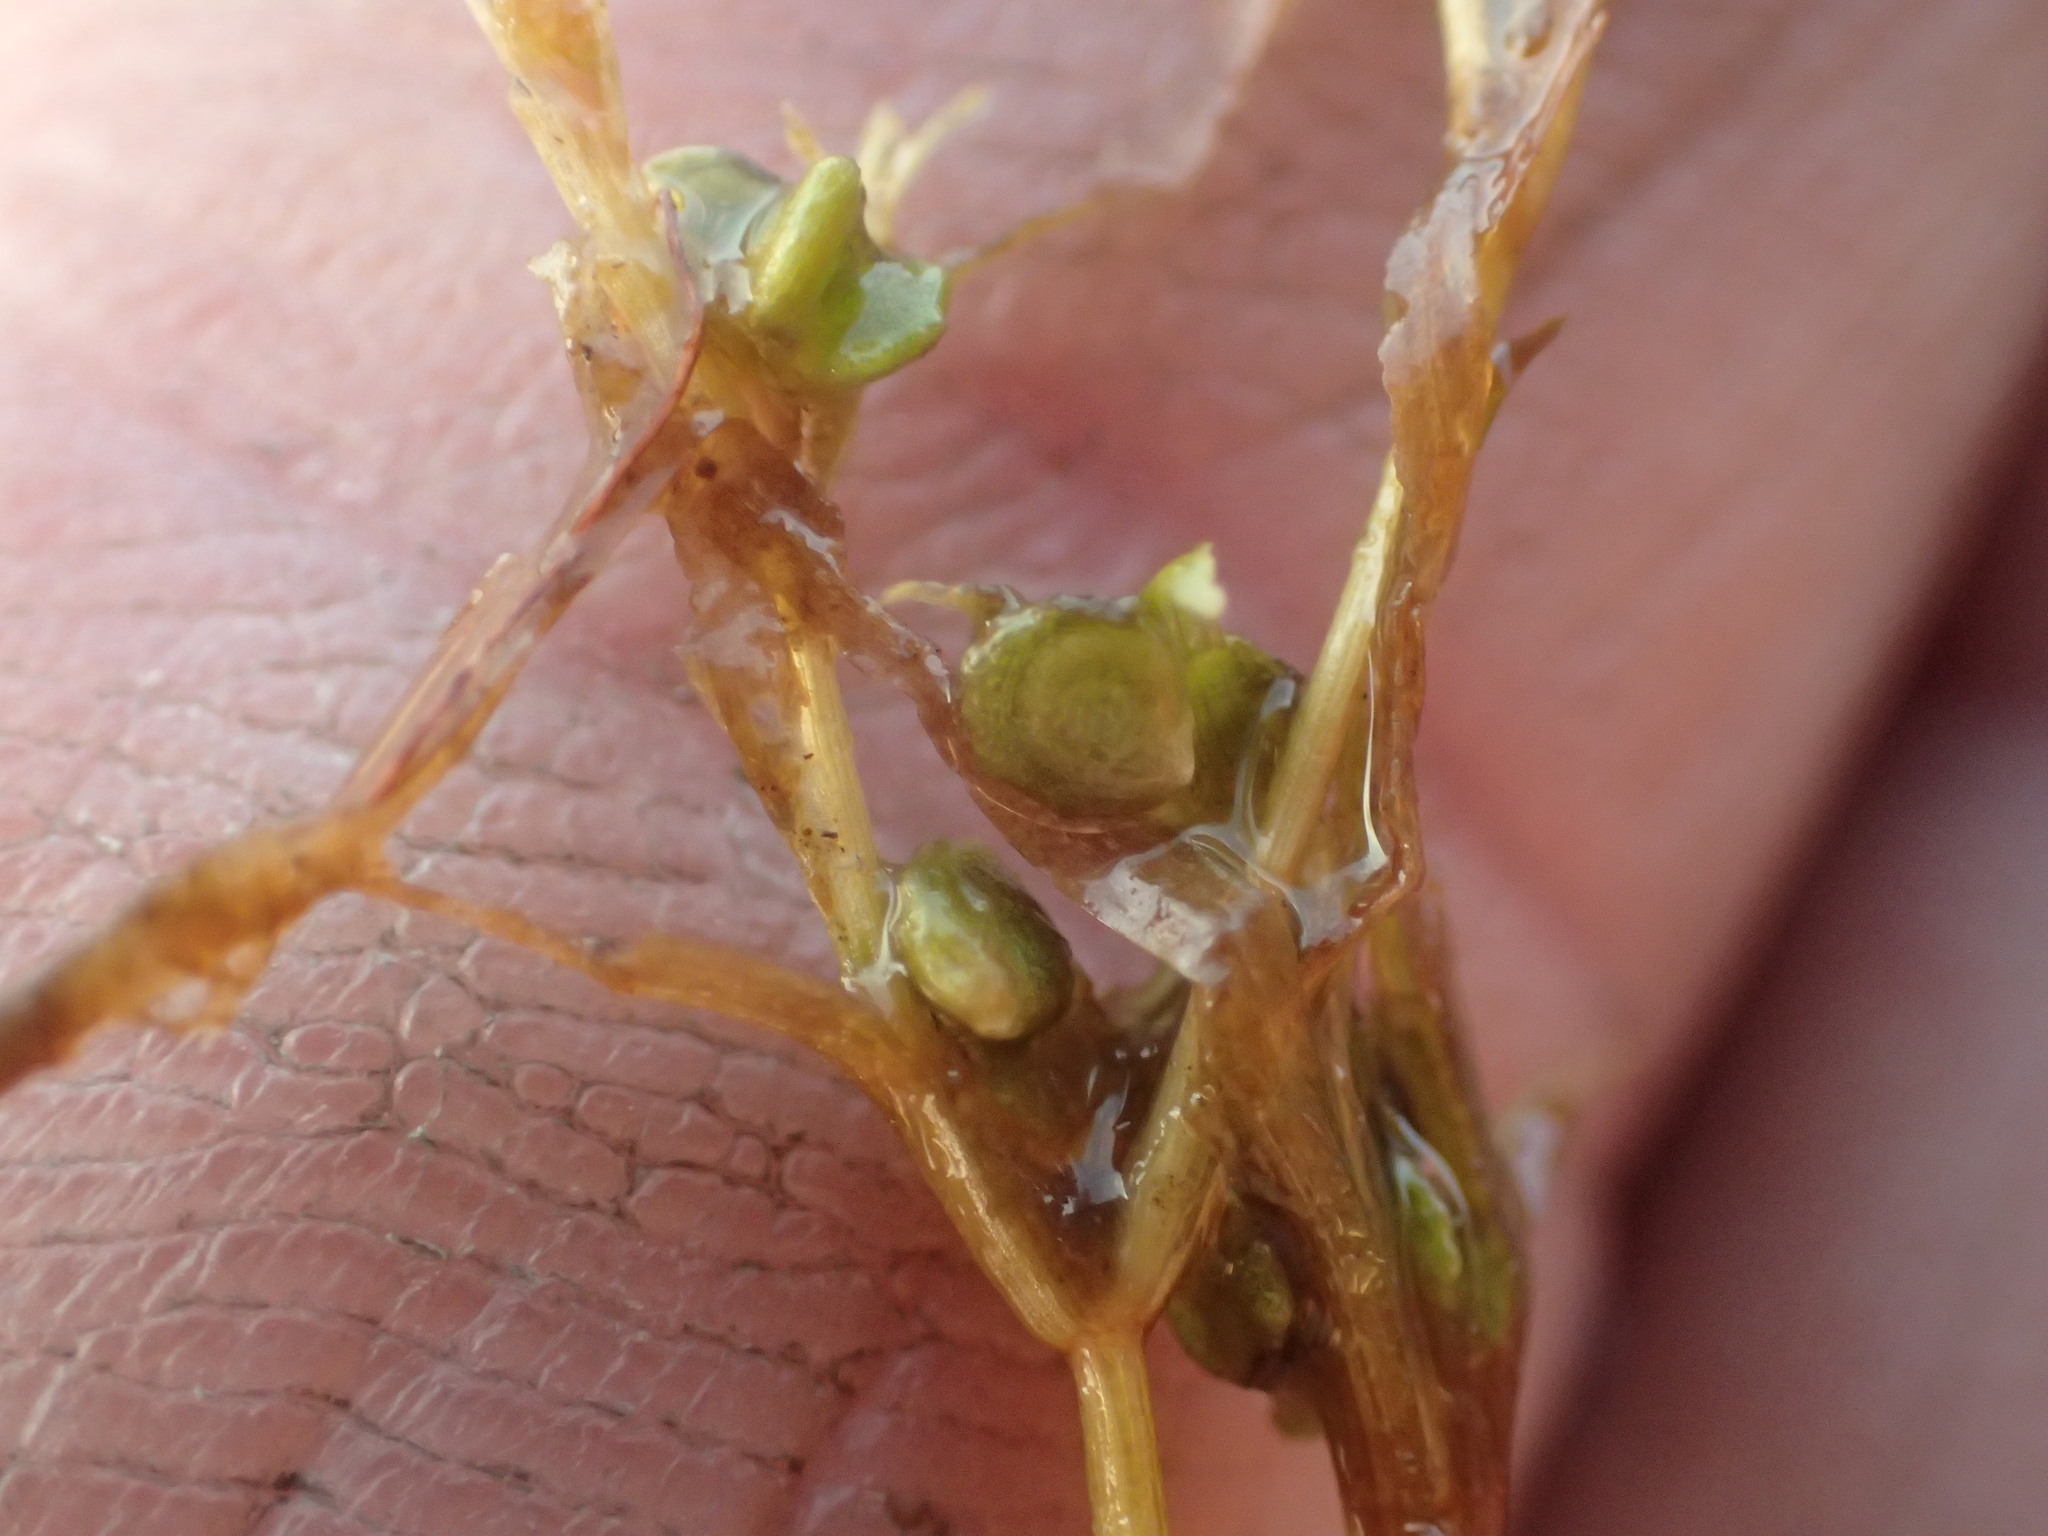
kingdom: Plantae
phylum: Tracheophyta
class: Liliopsida
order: Alismatales
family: Potamogetonaceae
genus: Potamogeton
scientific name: Potamogeton spirillus
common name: Northern snail-seed pondweed
